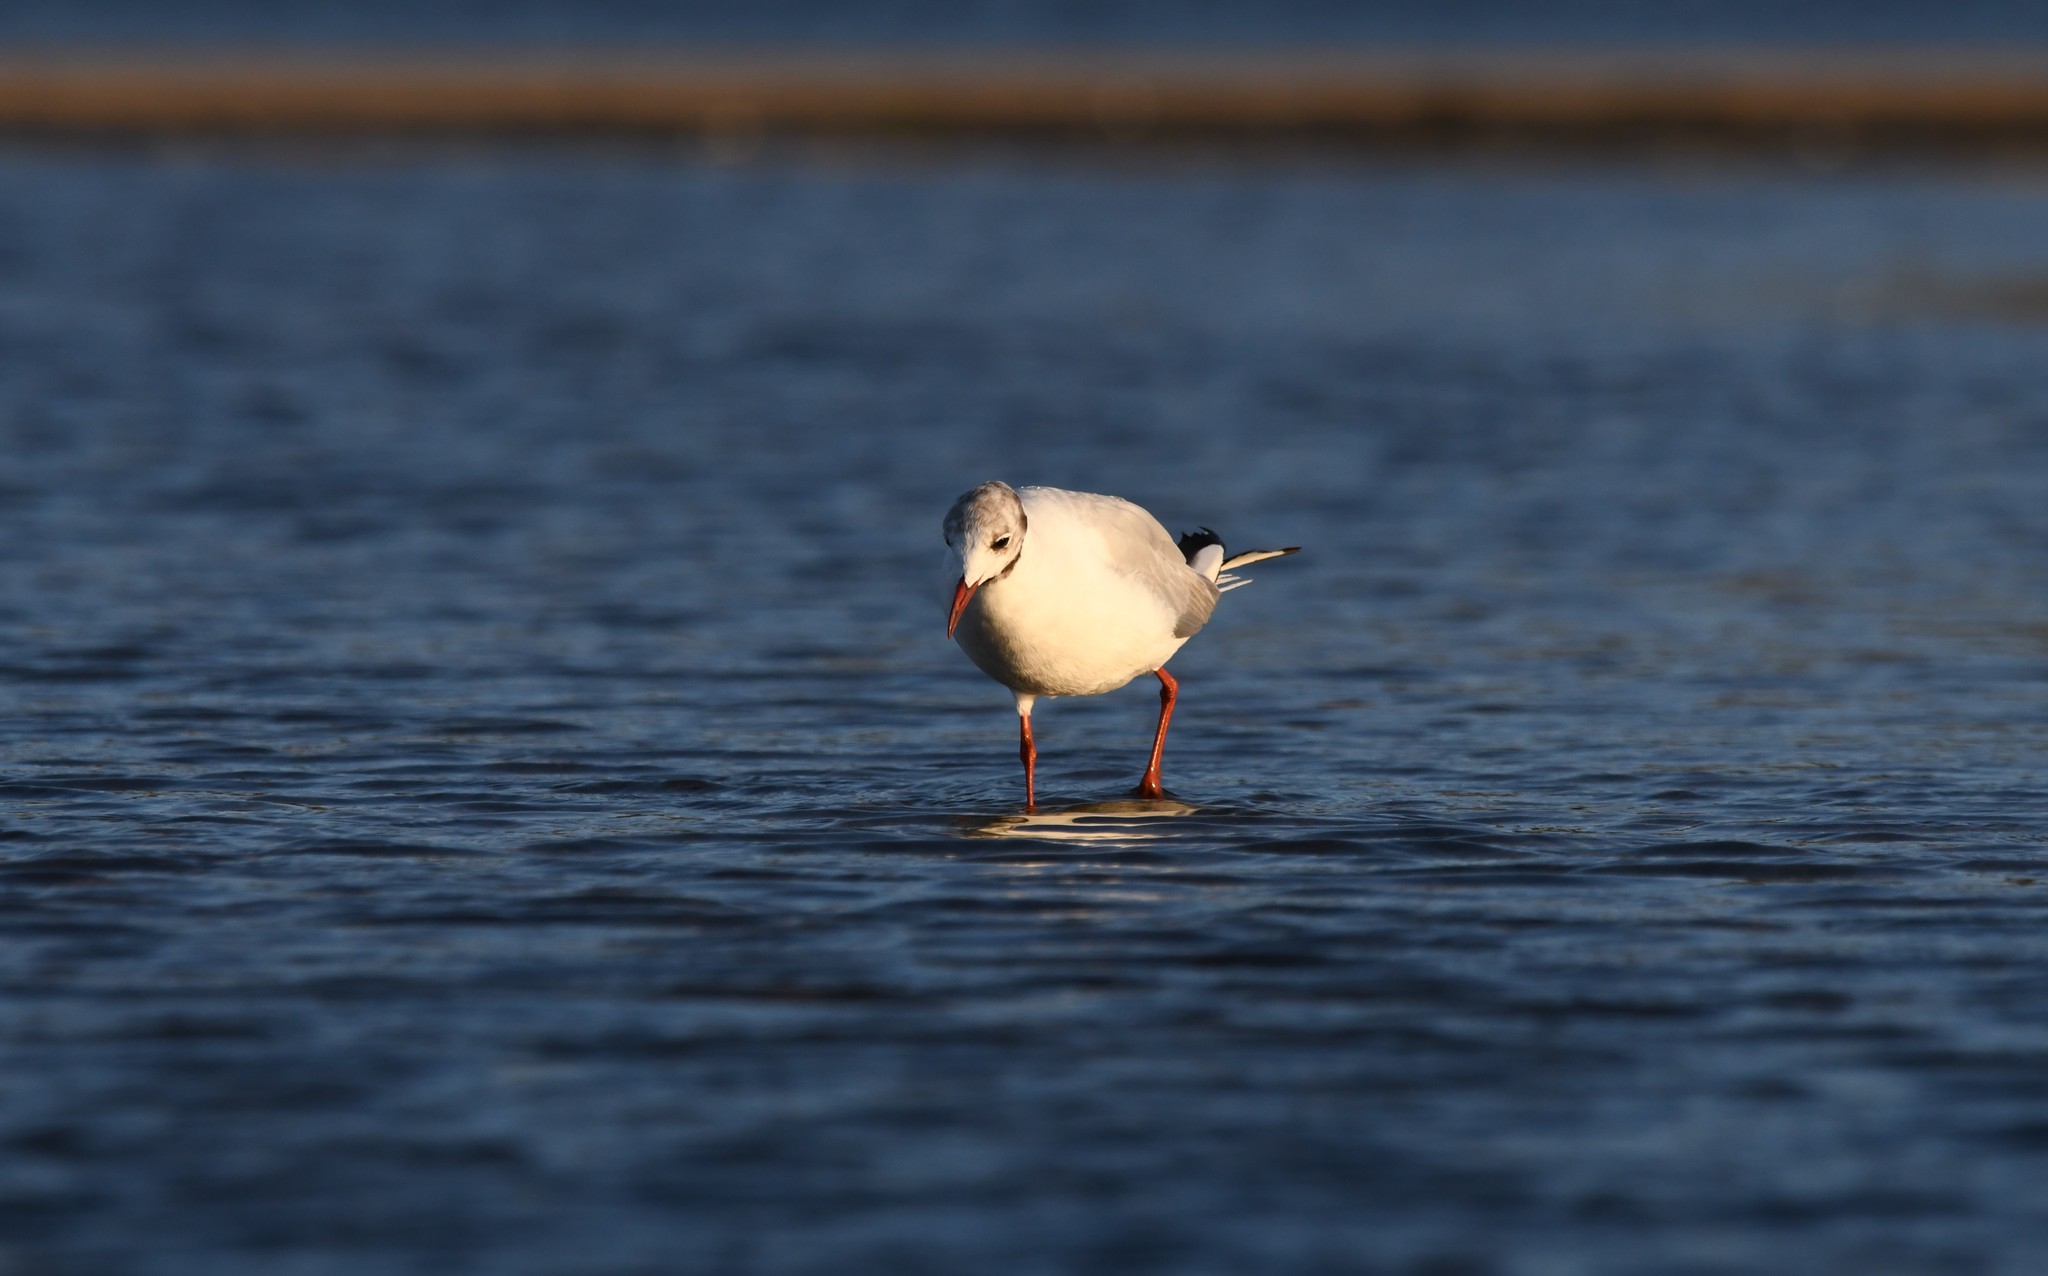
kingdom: Animalia
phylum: Chordata
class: Aves
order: Charadriiformes
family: Laridae
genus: Chroicocephalus
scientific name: Chroicocephalus ridibundus
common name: Black-headed gull
